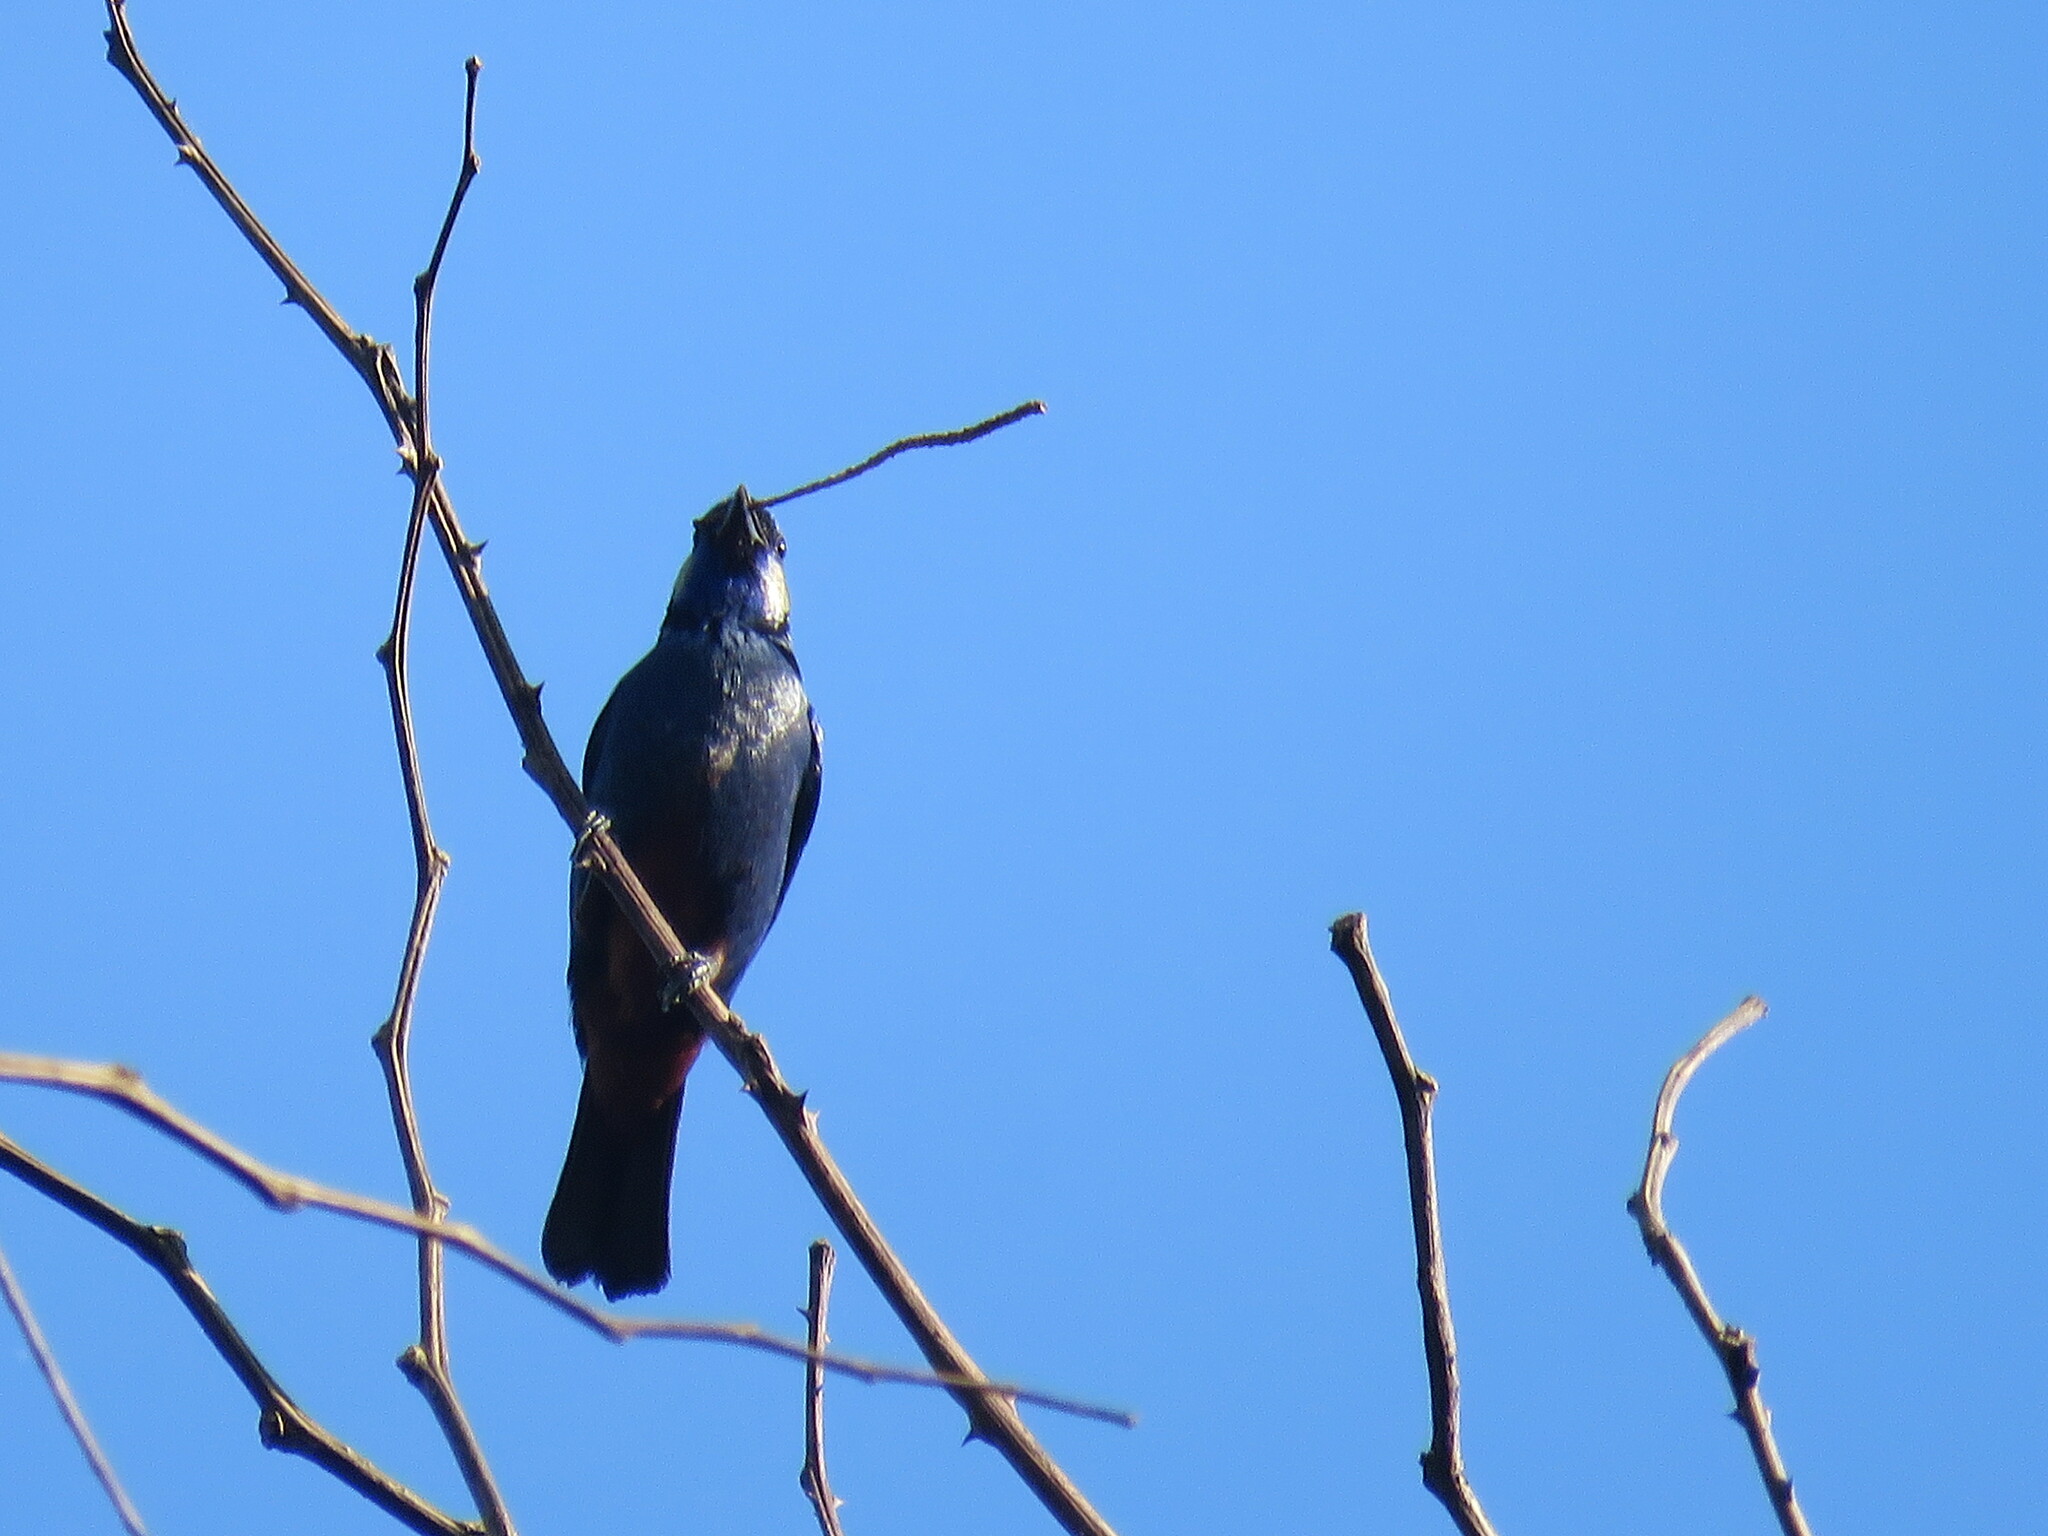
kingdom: Animalia
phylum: Chordata
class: Aves
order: Passeriformes
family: Thraupidae
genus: Tangara
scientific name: Tangara velia
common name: Opal-rumped tanager
